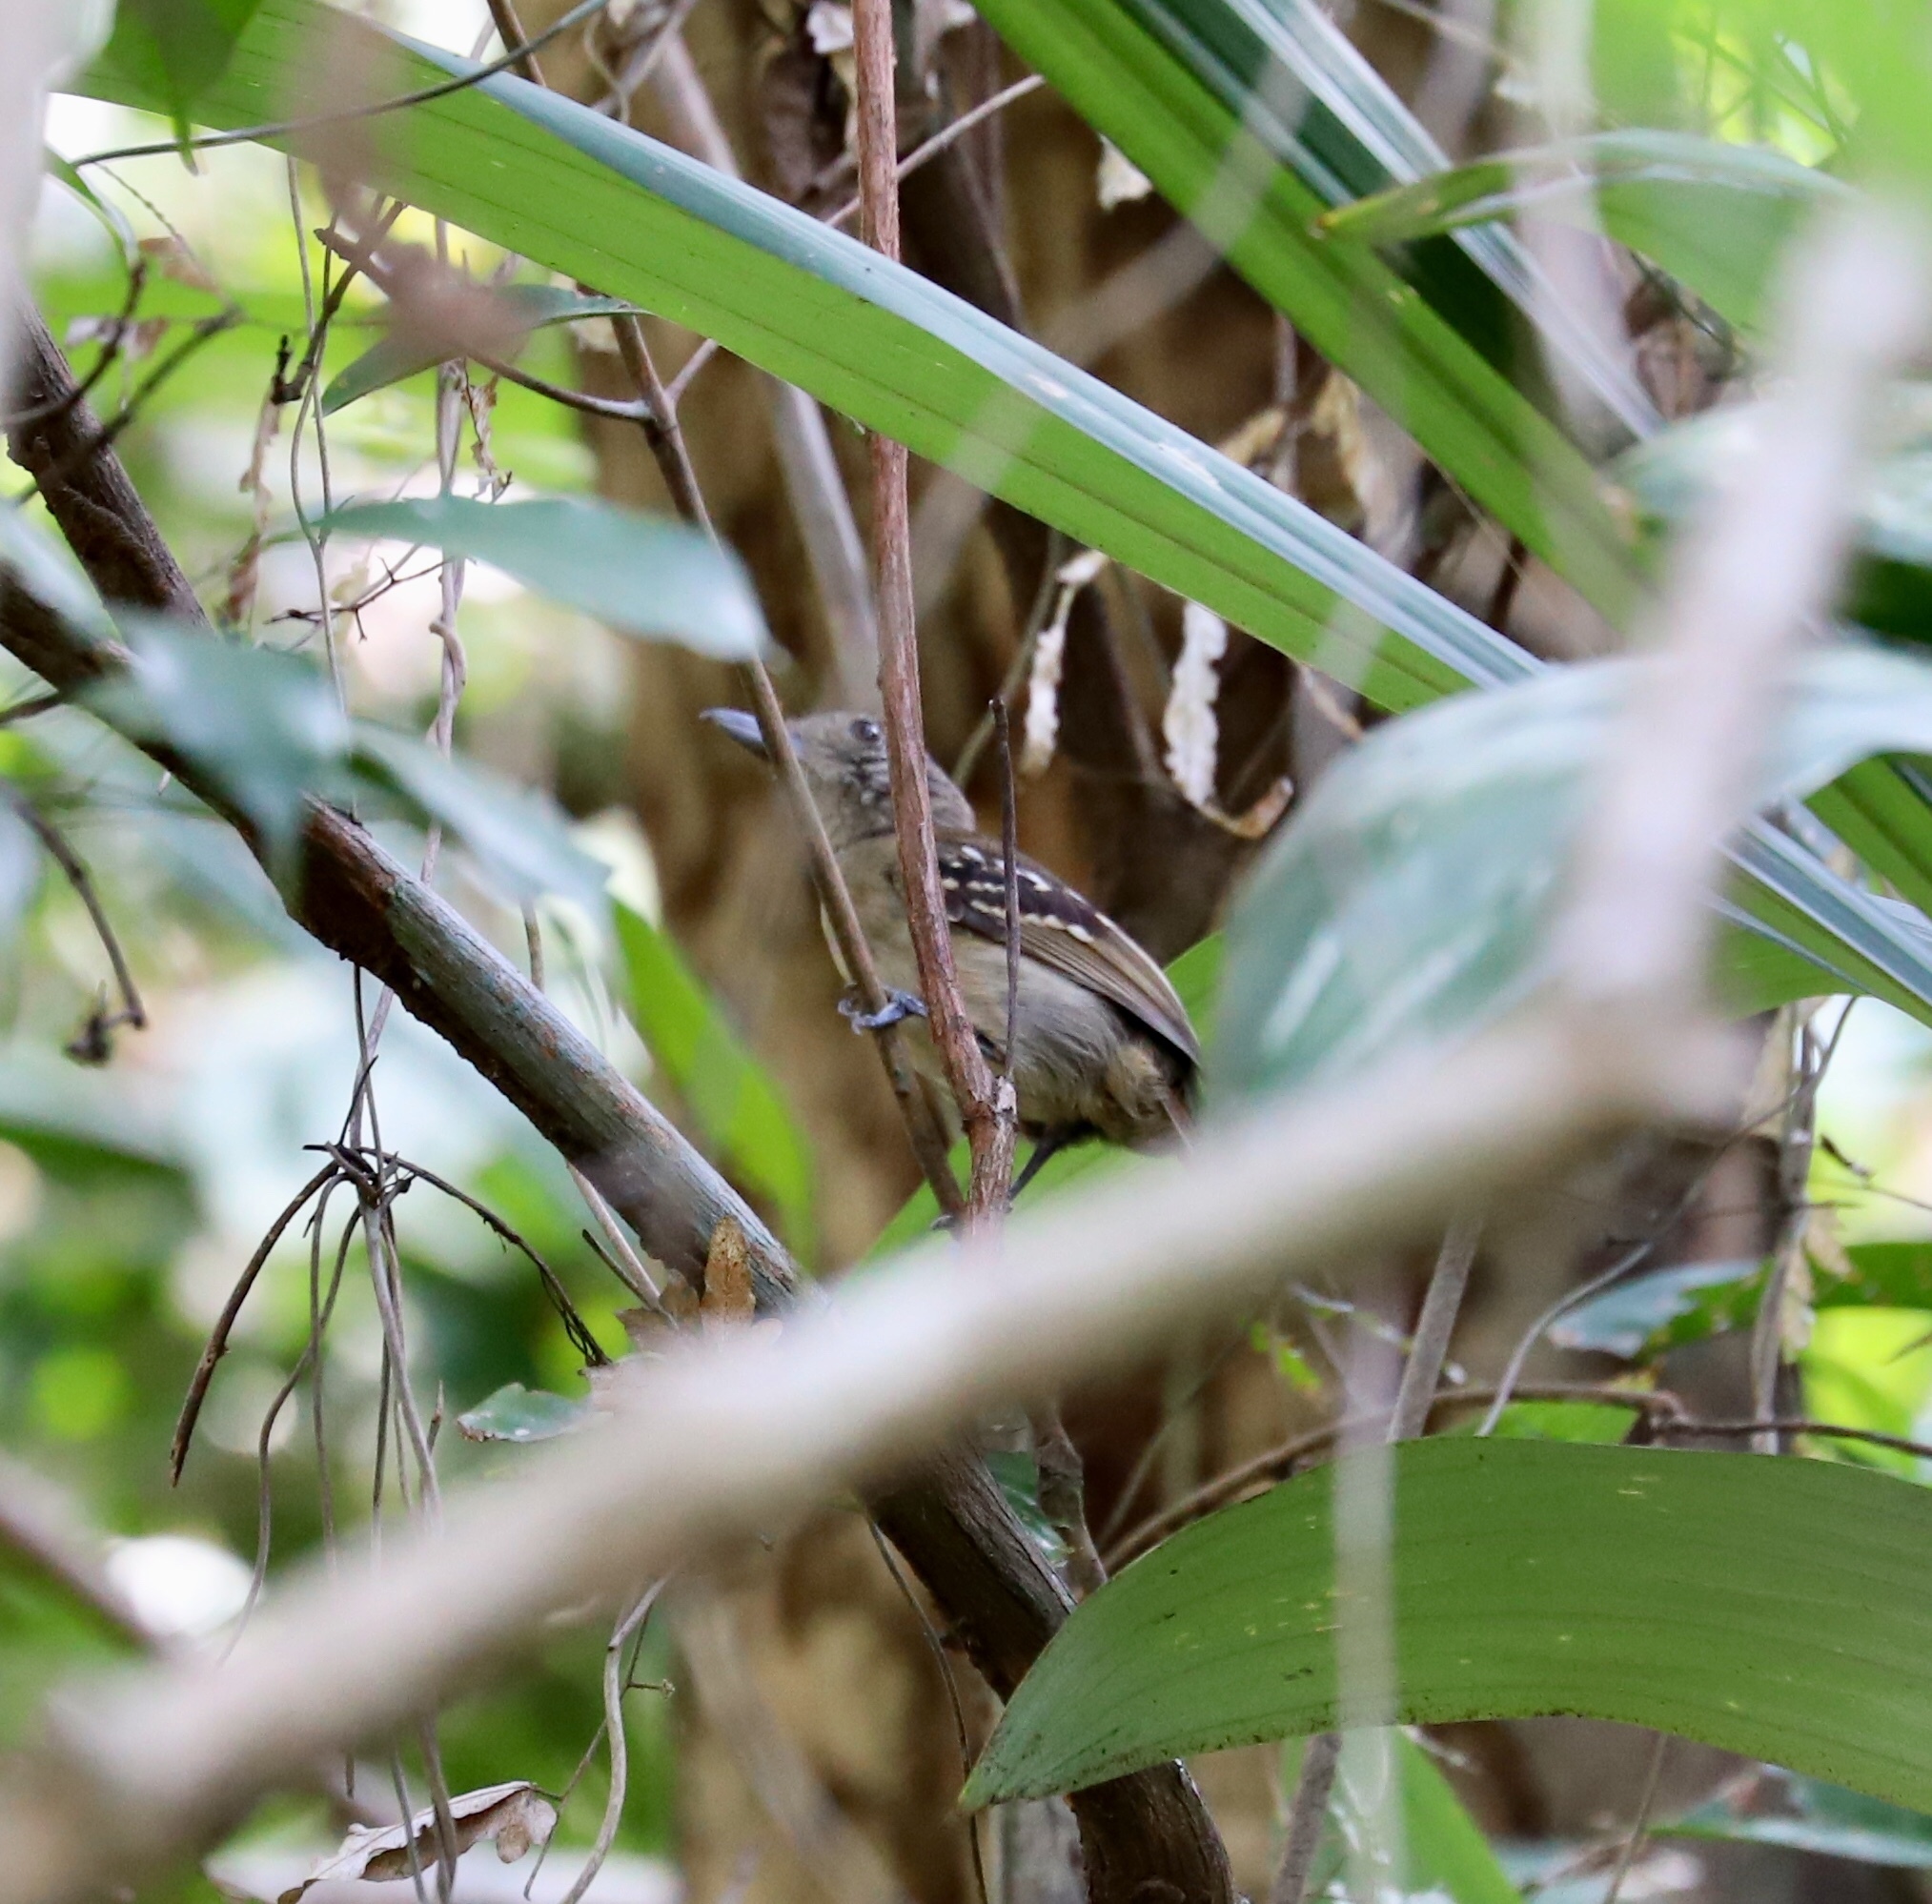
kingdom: Animalia
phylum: Chordata
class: Aves
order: Passeriformes
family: Thamnophilidae
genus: Thamnophilus
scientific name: Thamnophilus atrinucha
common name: Black-crowned antshrike
